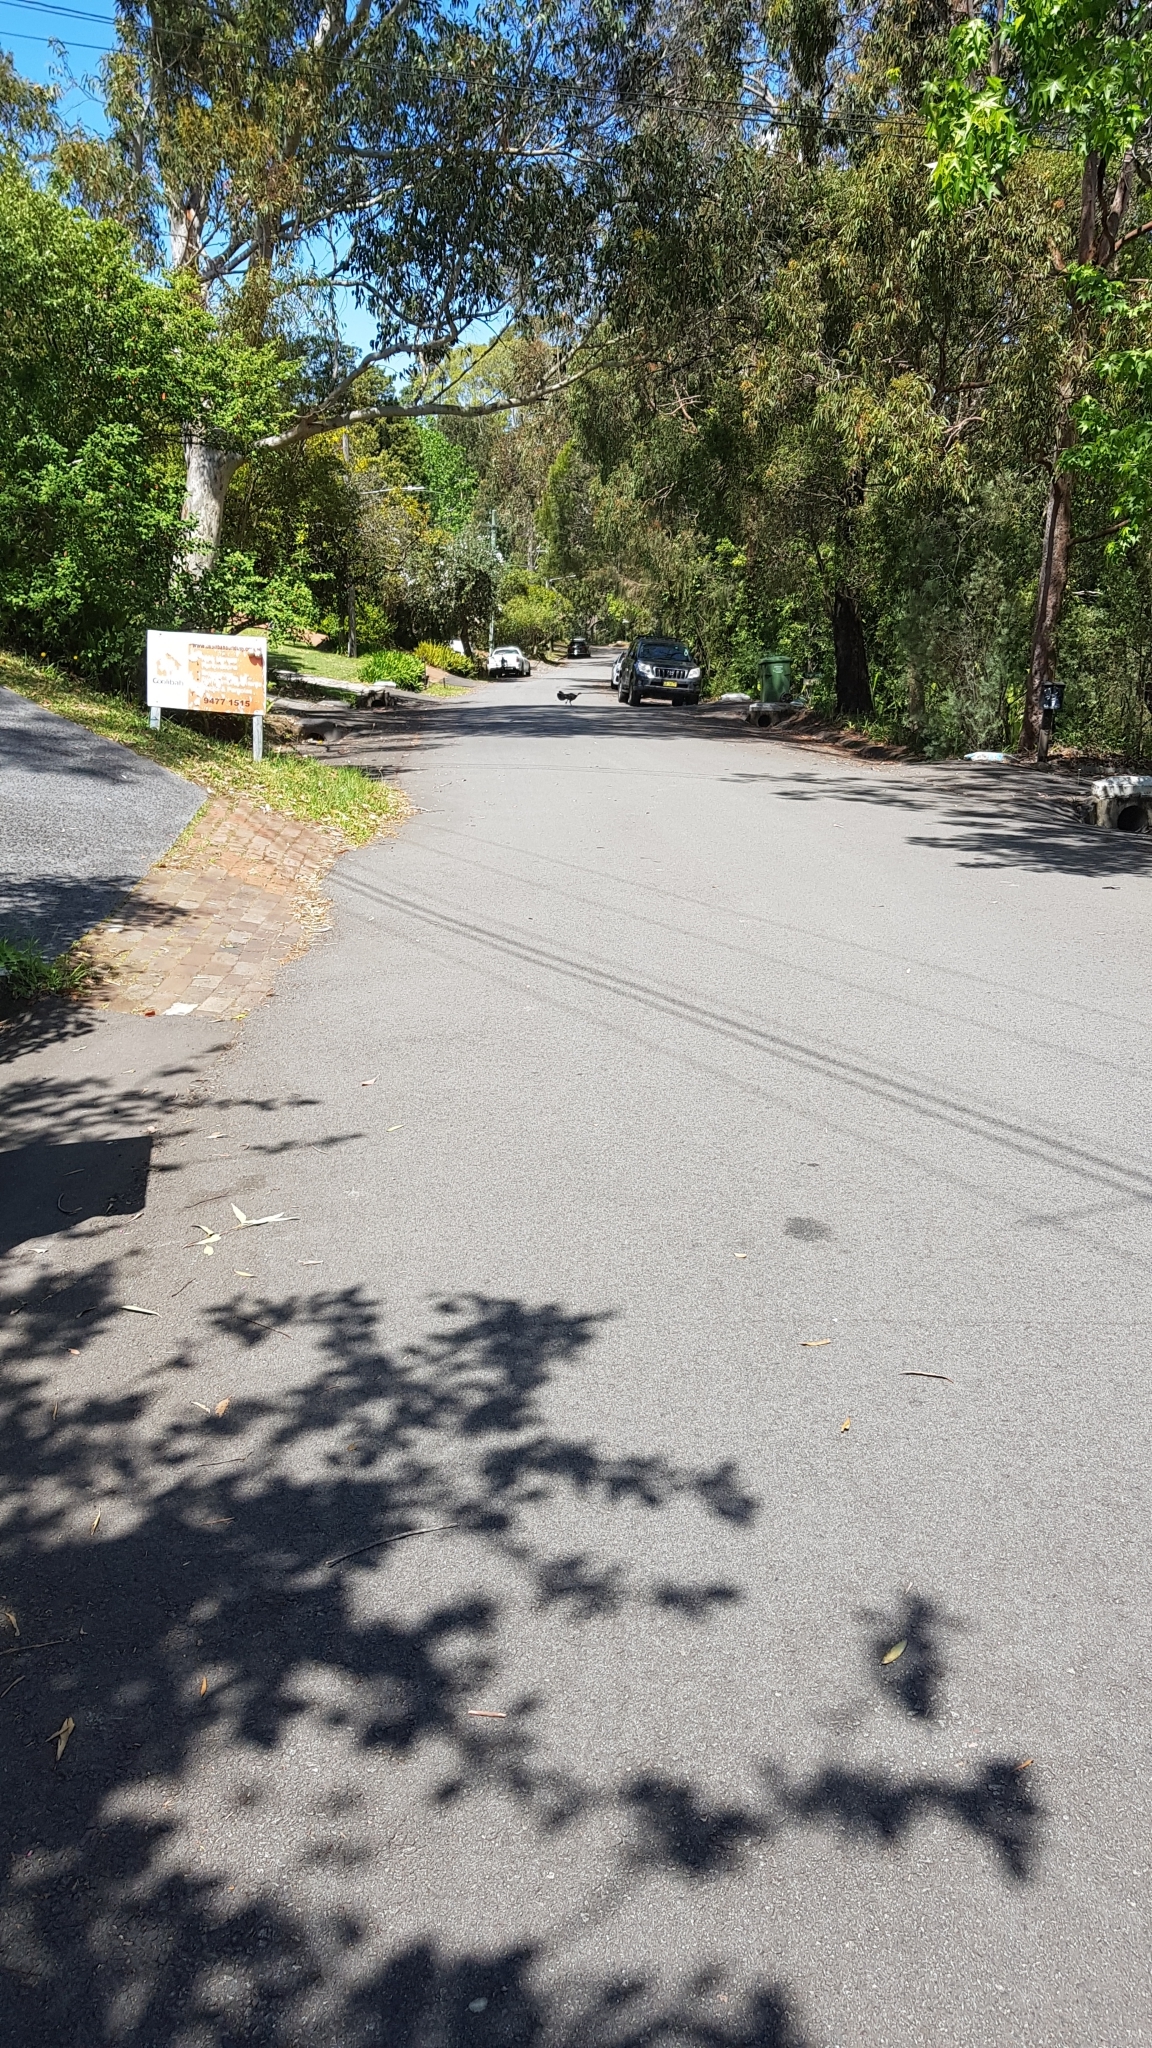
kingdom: Animalia
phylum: Chordata
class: Aves
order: Galliformes
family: Megapodiidae
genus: Alectura
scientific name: Alectura lathami
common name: Australian brushturkey
